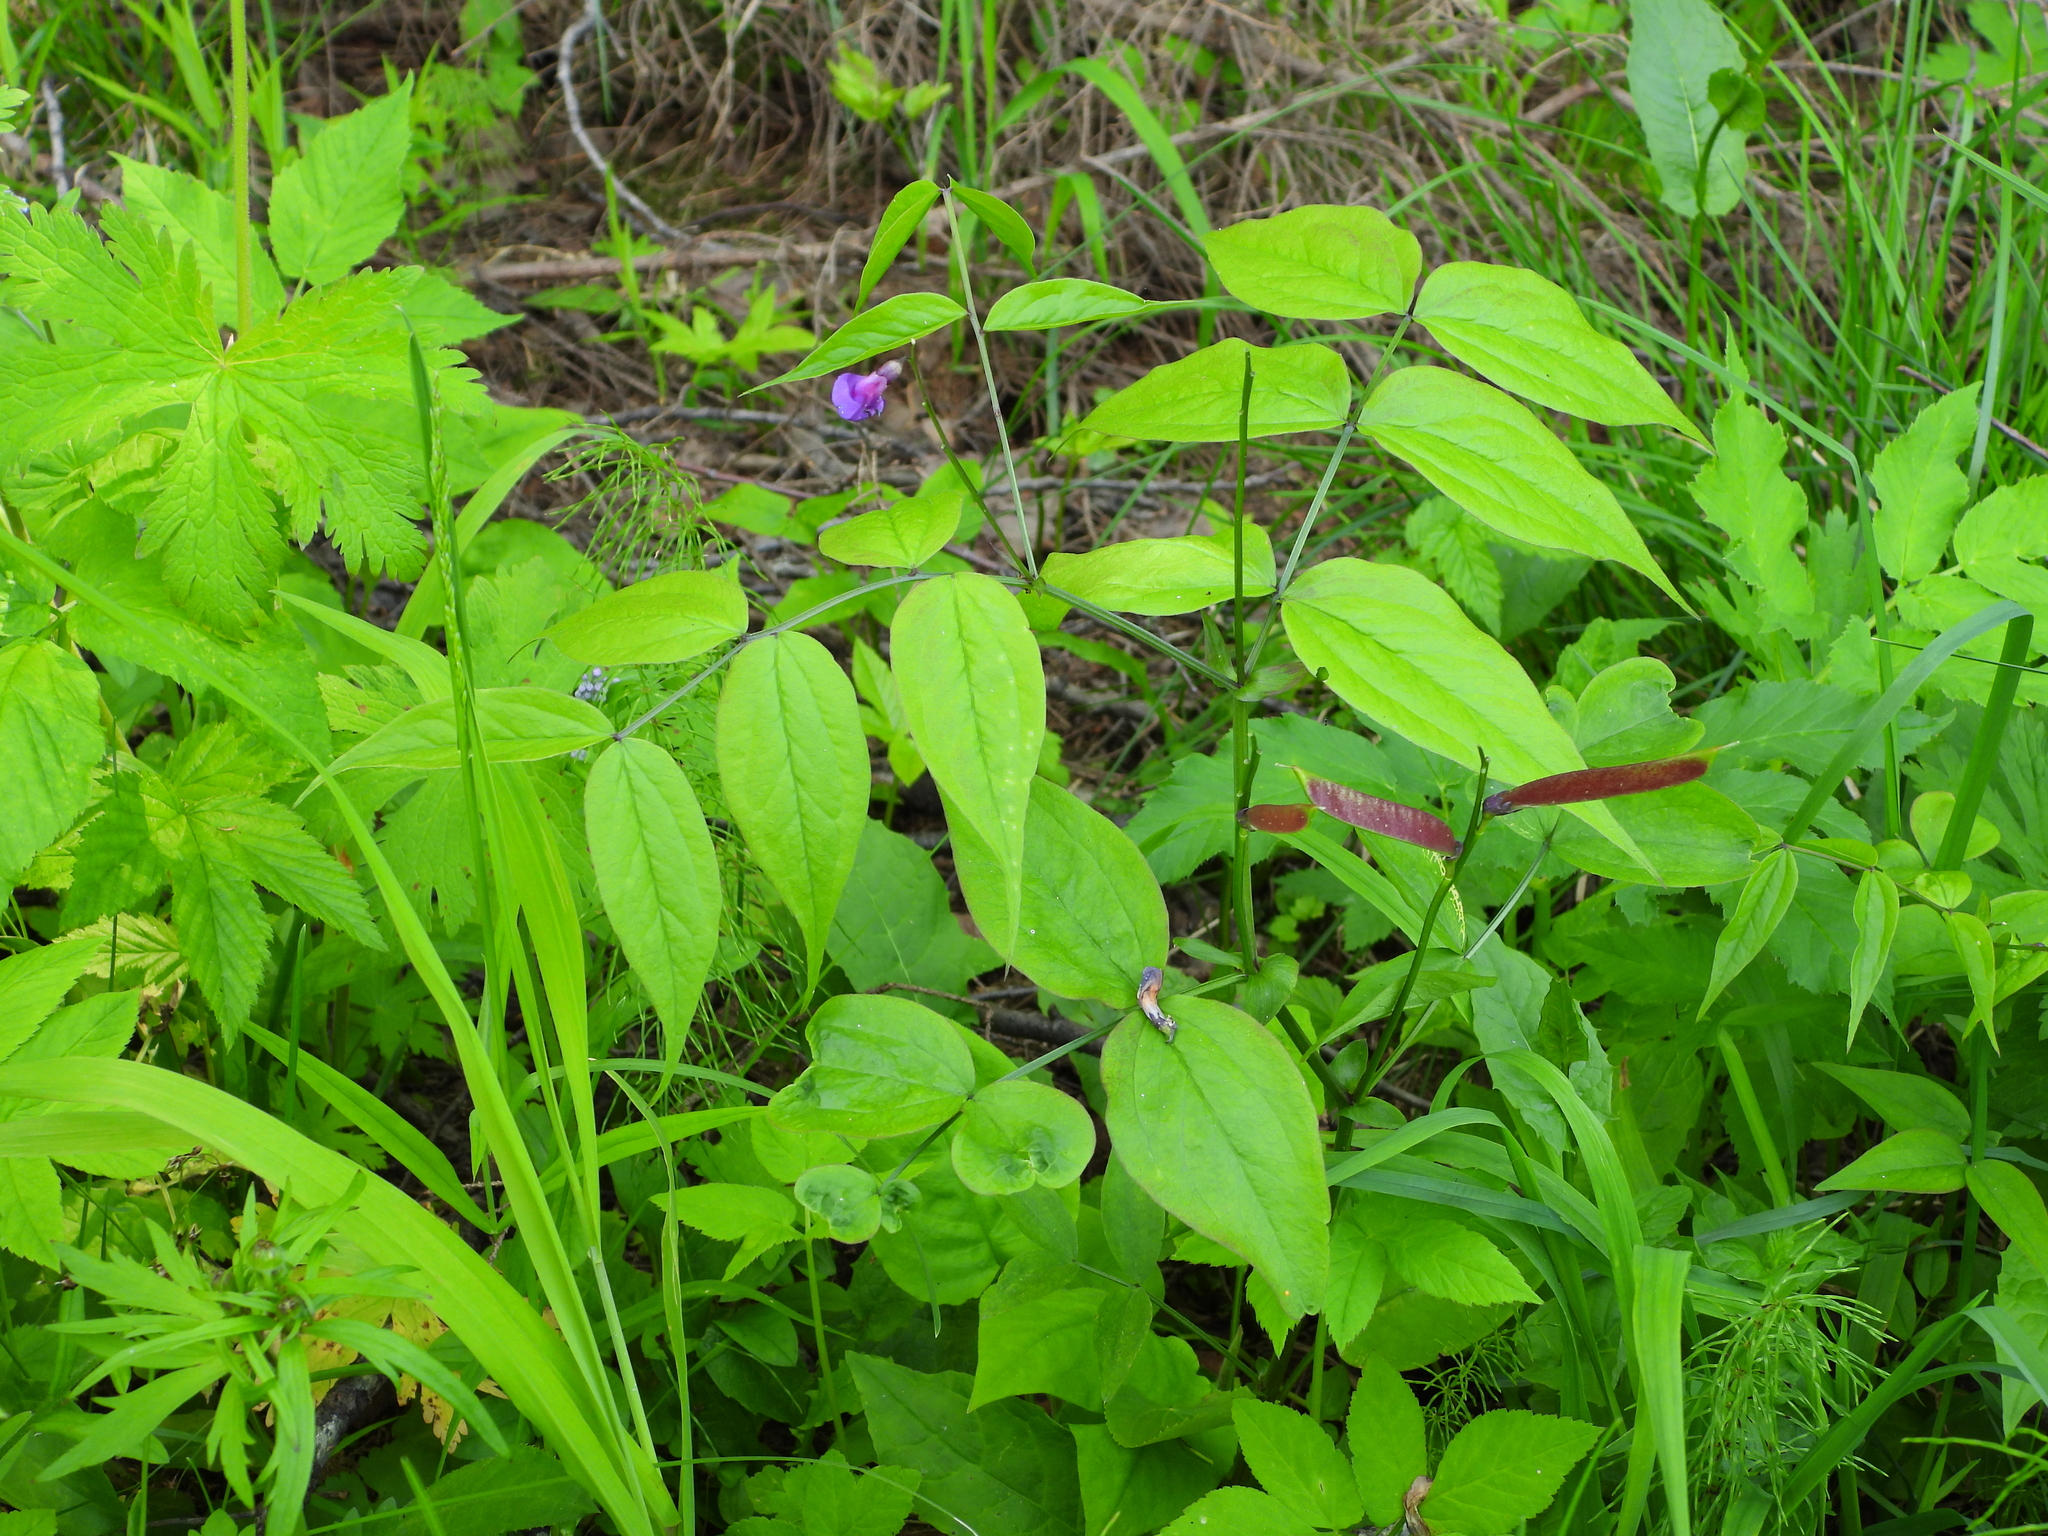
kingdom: Plantae
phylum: Tracheophyta
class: Magnoliopsida
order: Fabales
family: Fabaceae
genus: Lathyrus
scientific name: Lathyrus vernus
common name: Spring pea
